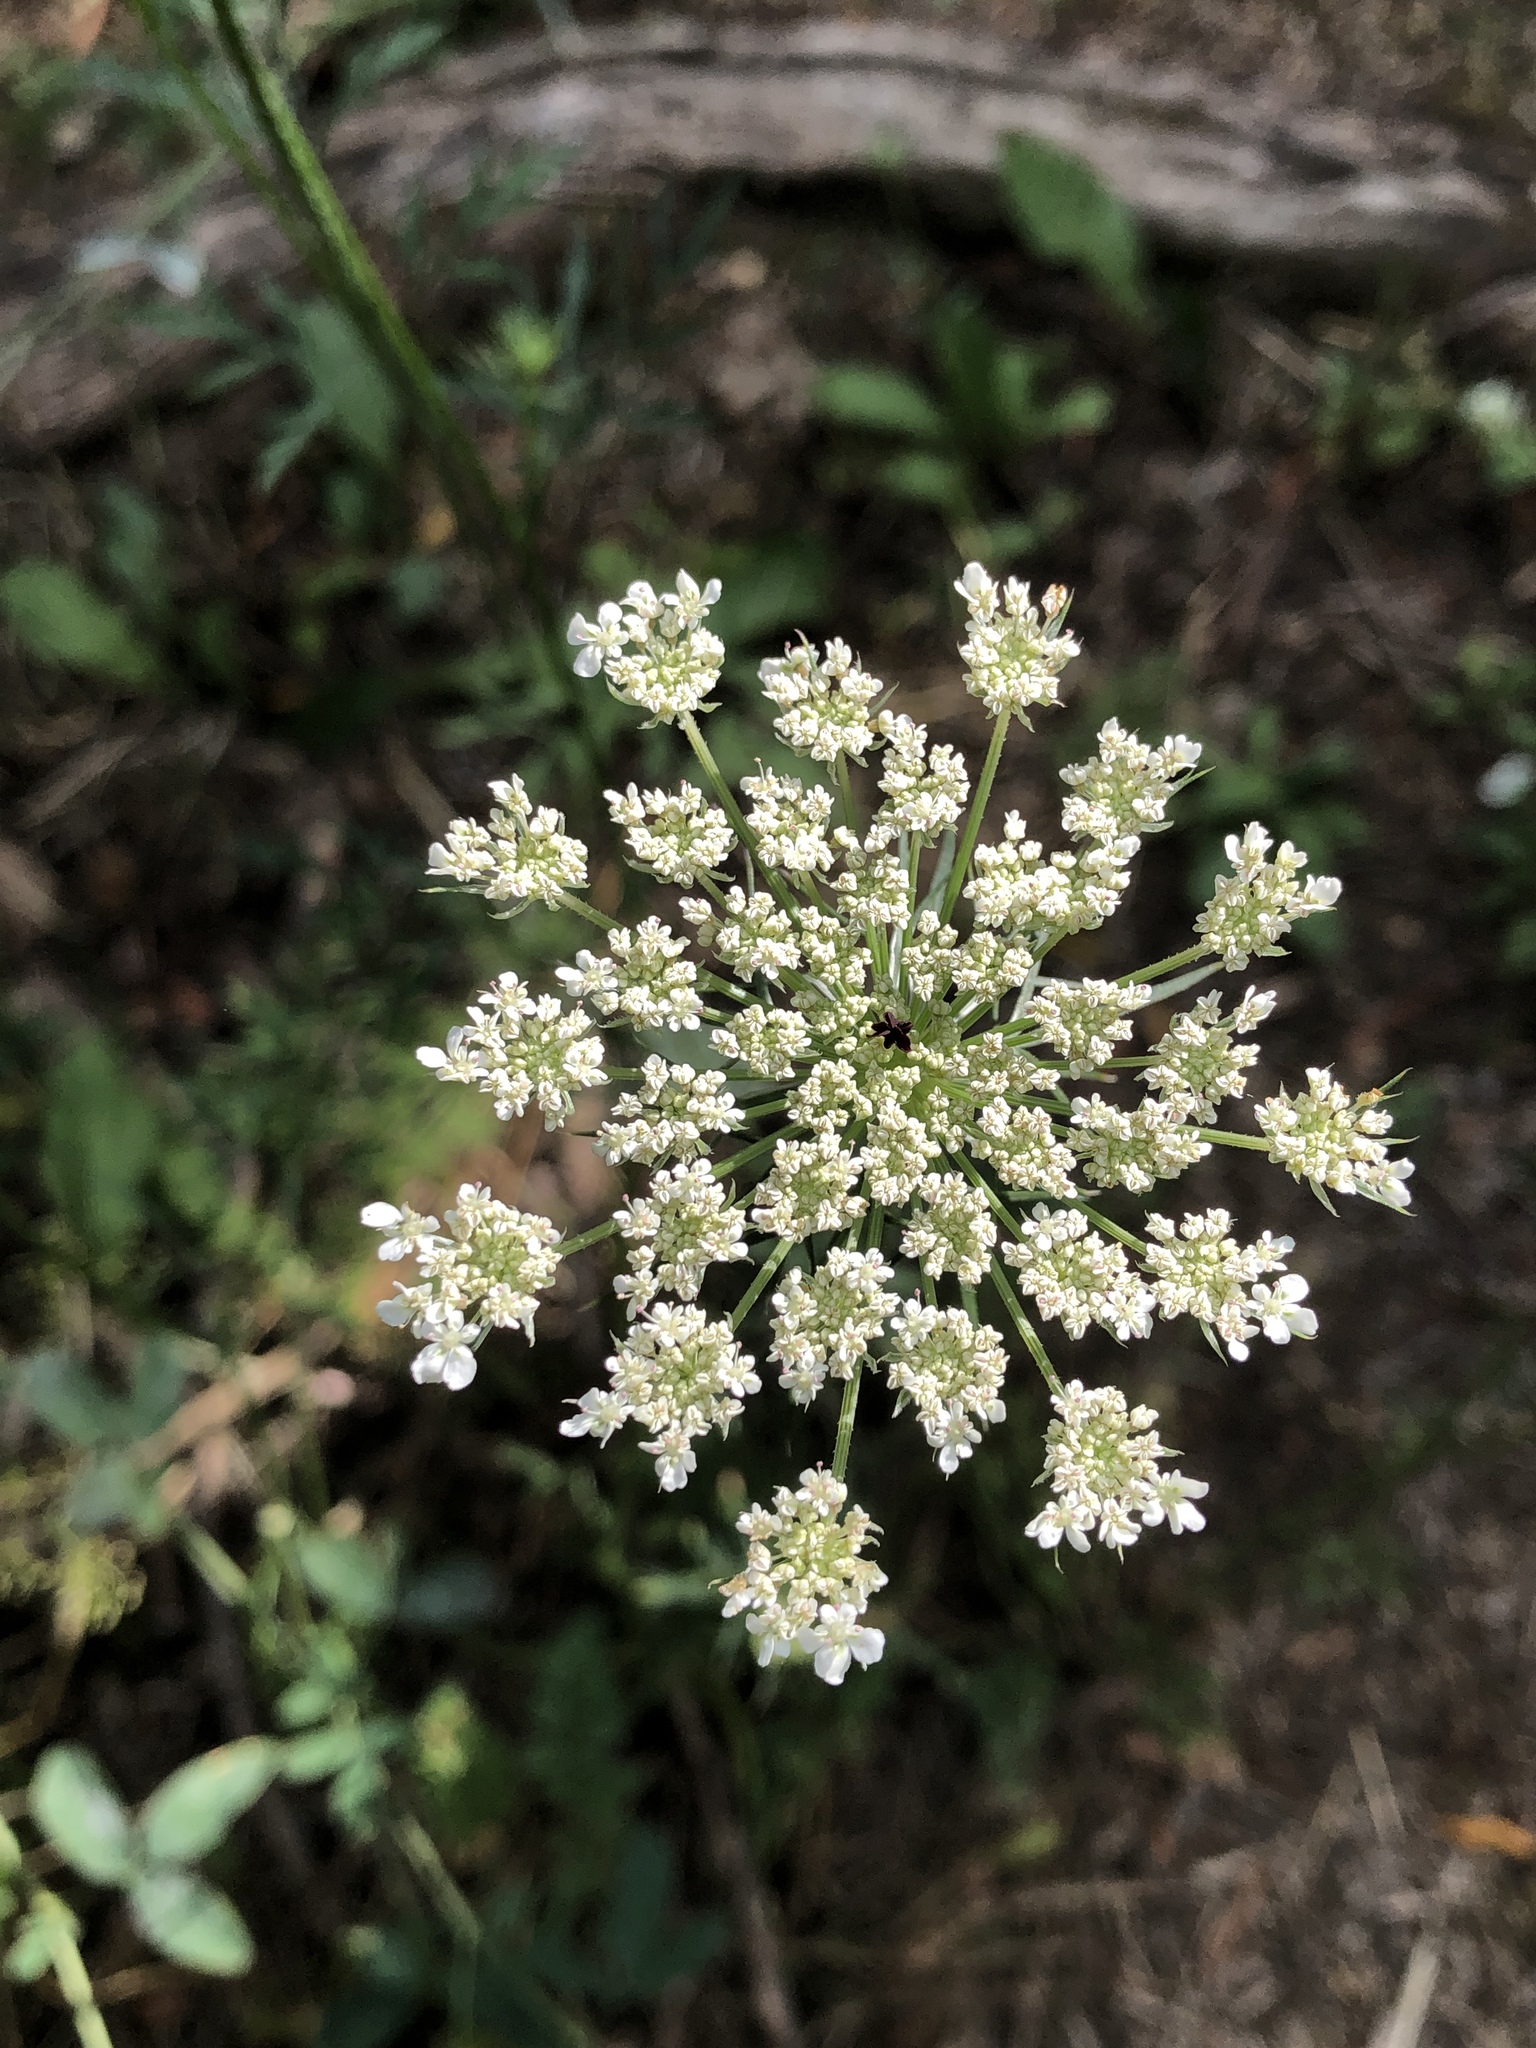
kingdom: Plantae
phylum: Tracheophyta
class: Magnoliopsida
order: Apiales
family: Apiaceae
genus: Daucus
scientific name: Daucus carota
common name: Wild carrot
